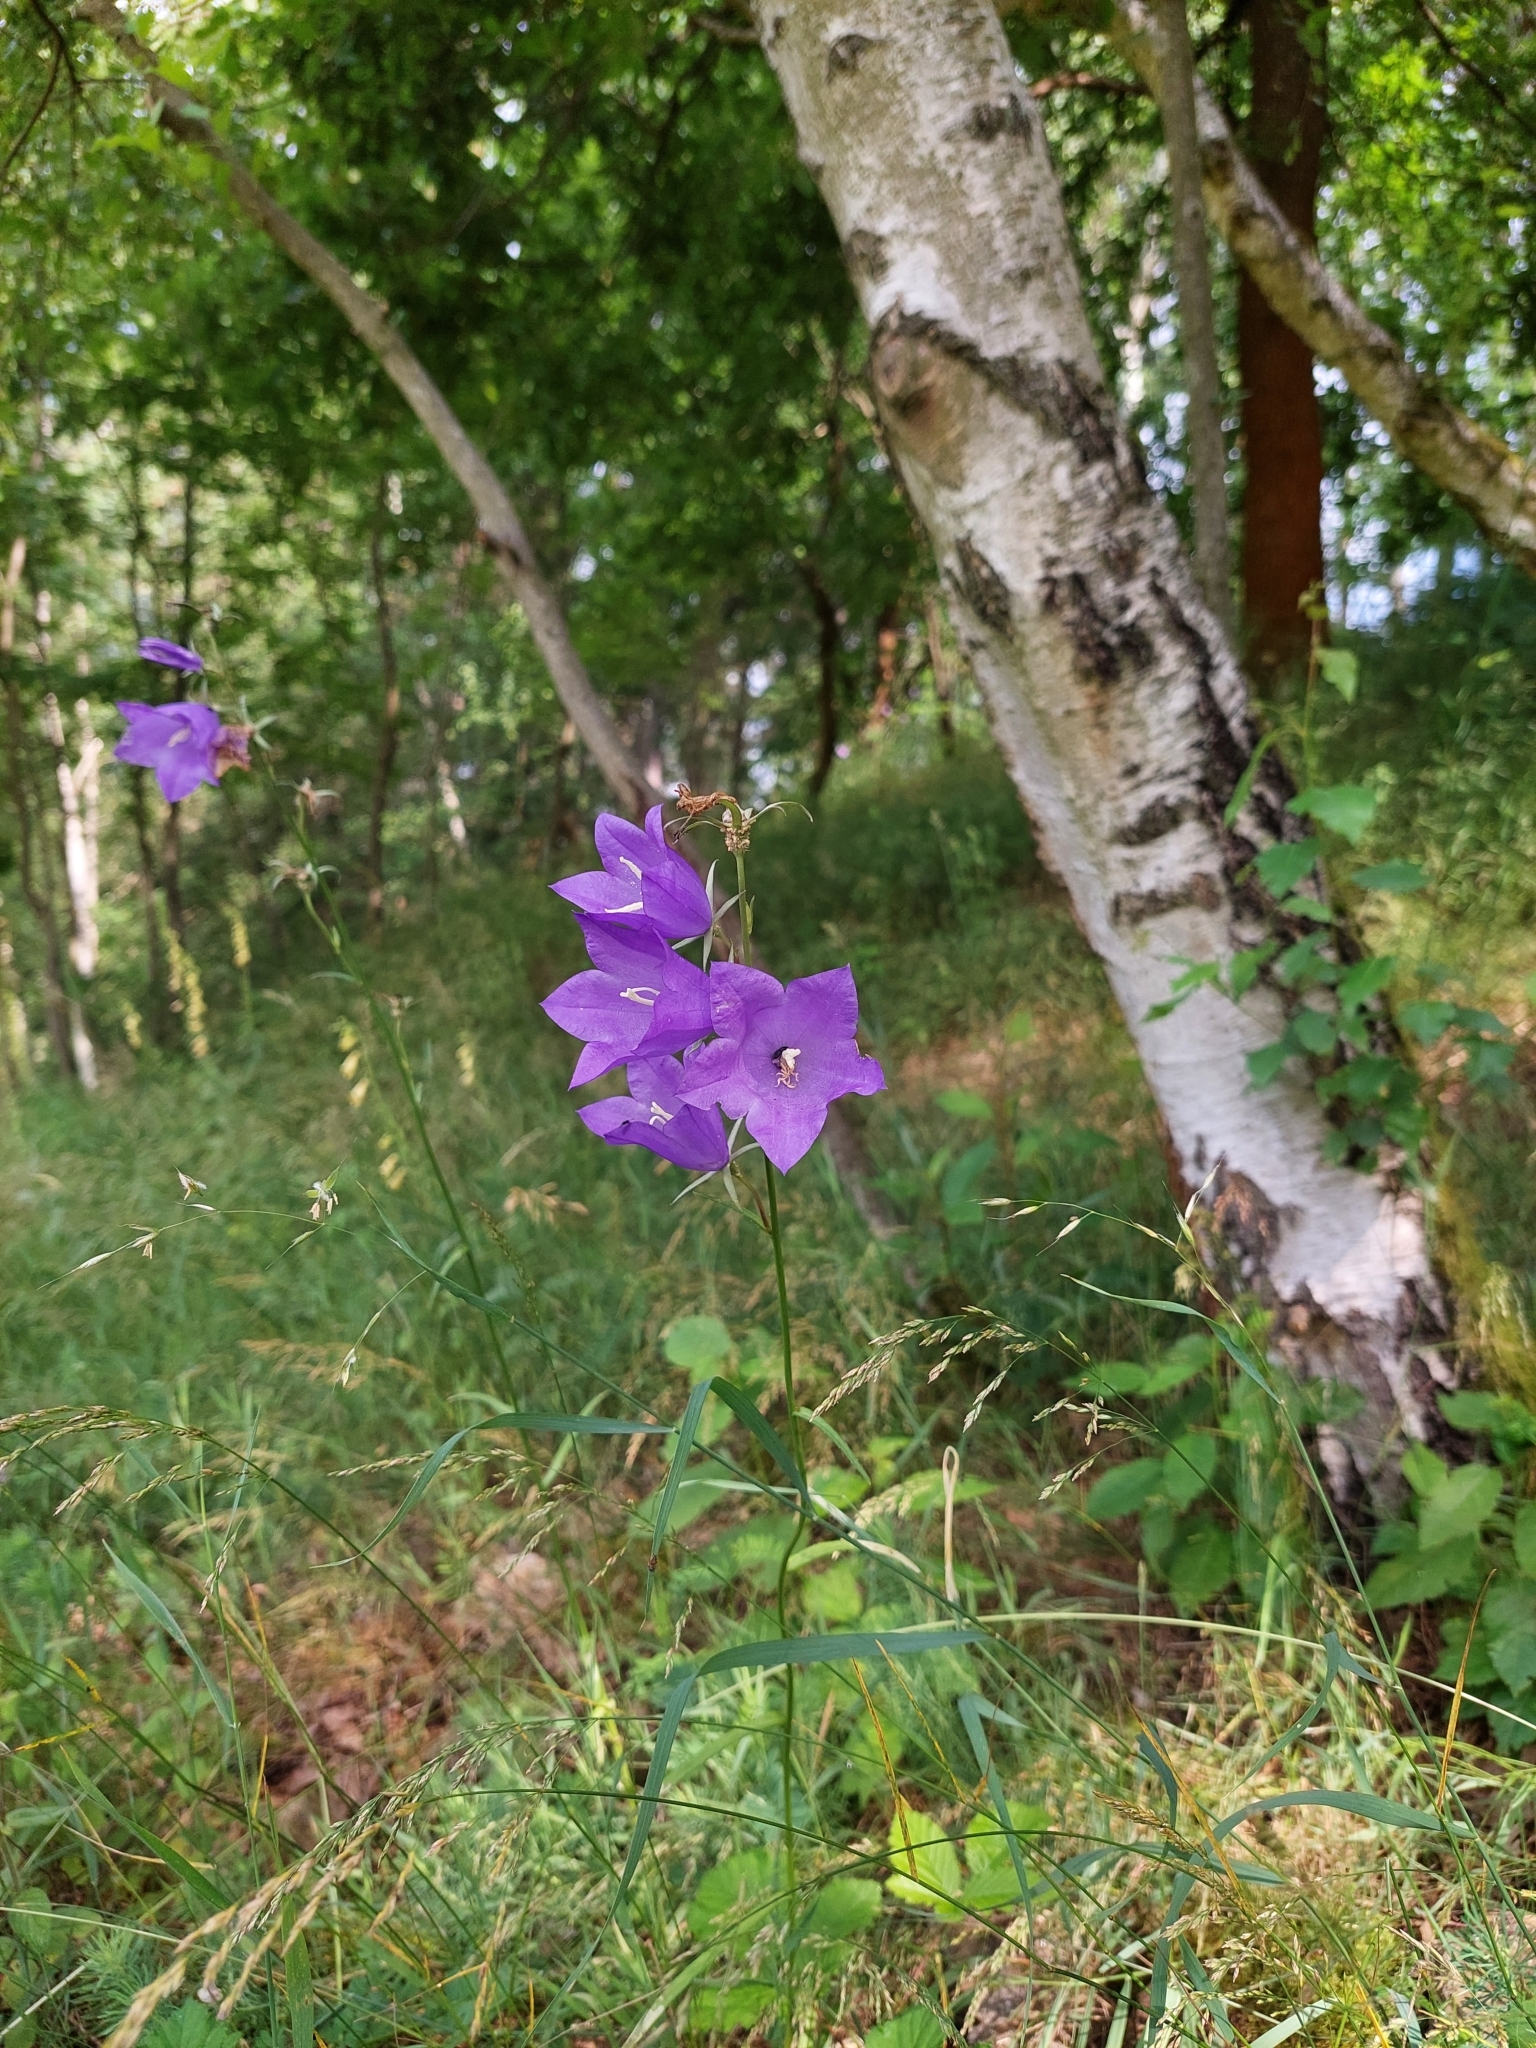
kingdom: Plantae
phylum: Tracheophyta
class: Magnoliopsida
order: Asterales
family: Campanulaceae
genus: Campanula
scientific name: Campanula persicifolia
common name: Peach-leaved bellflower
